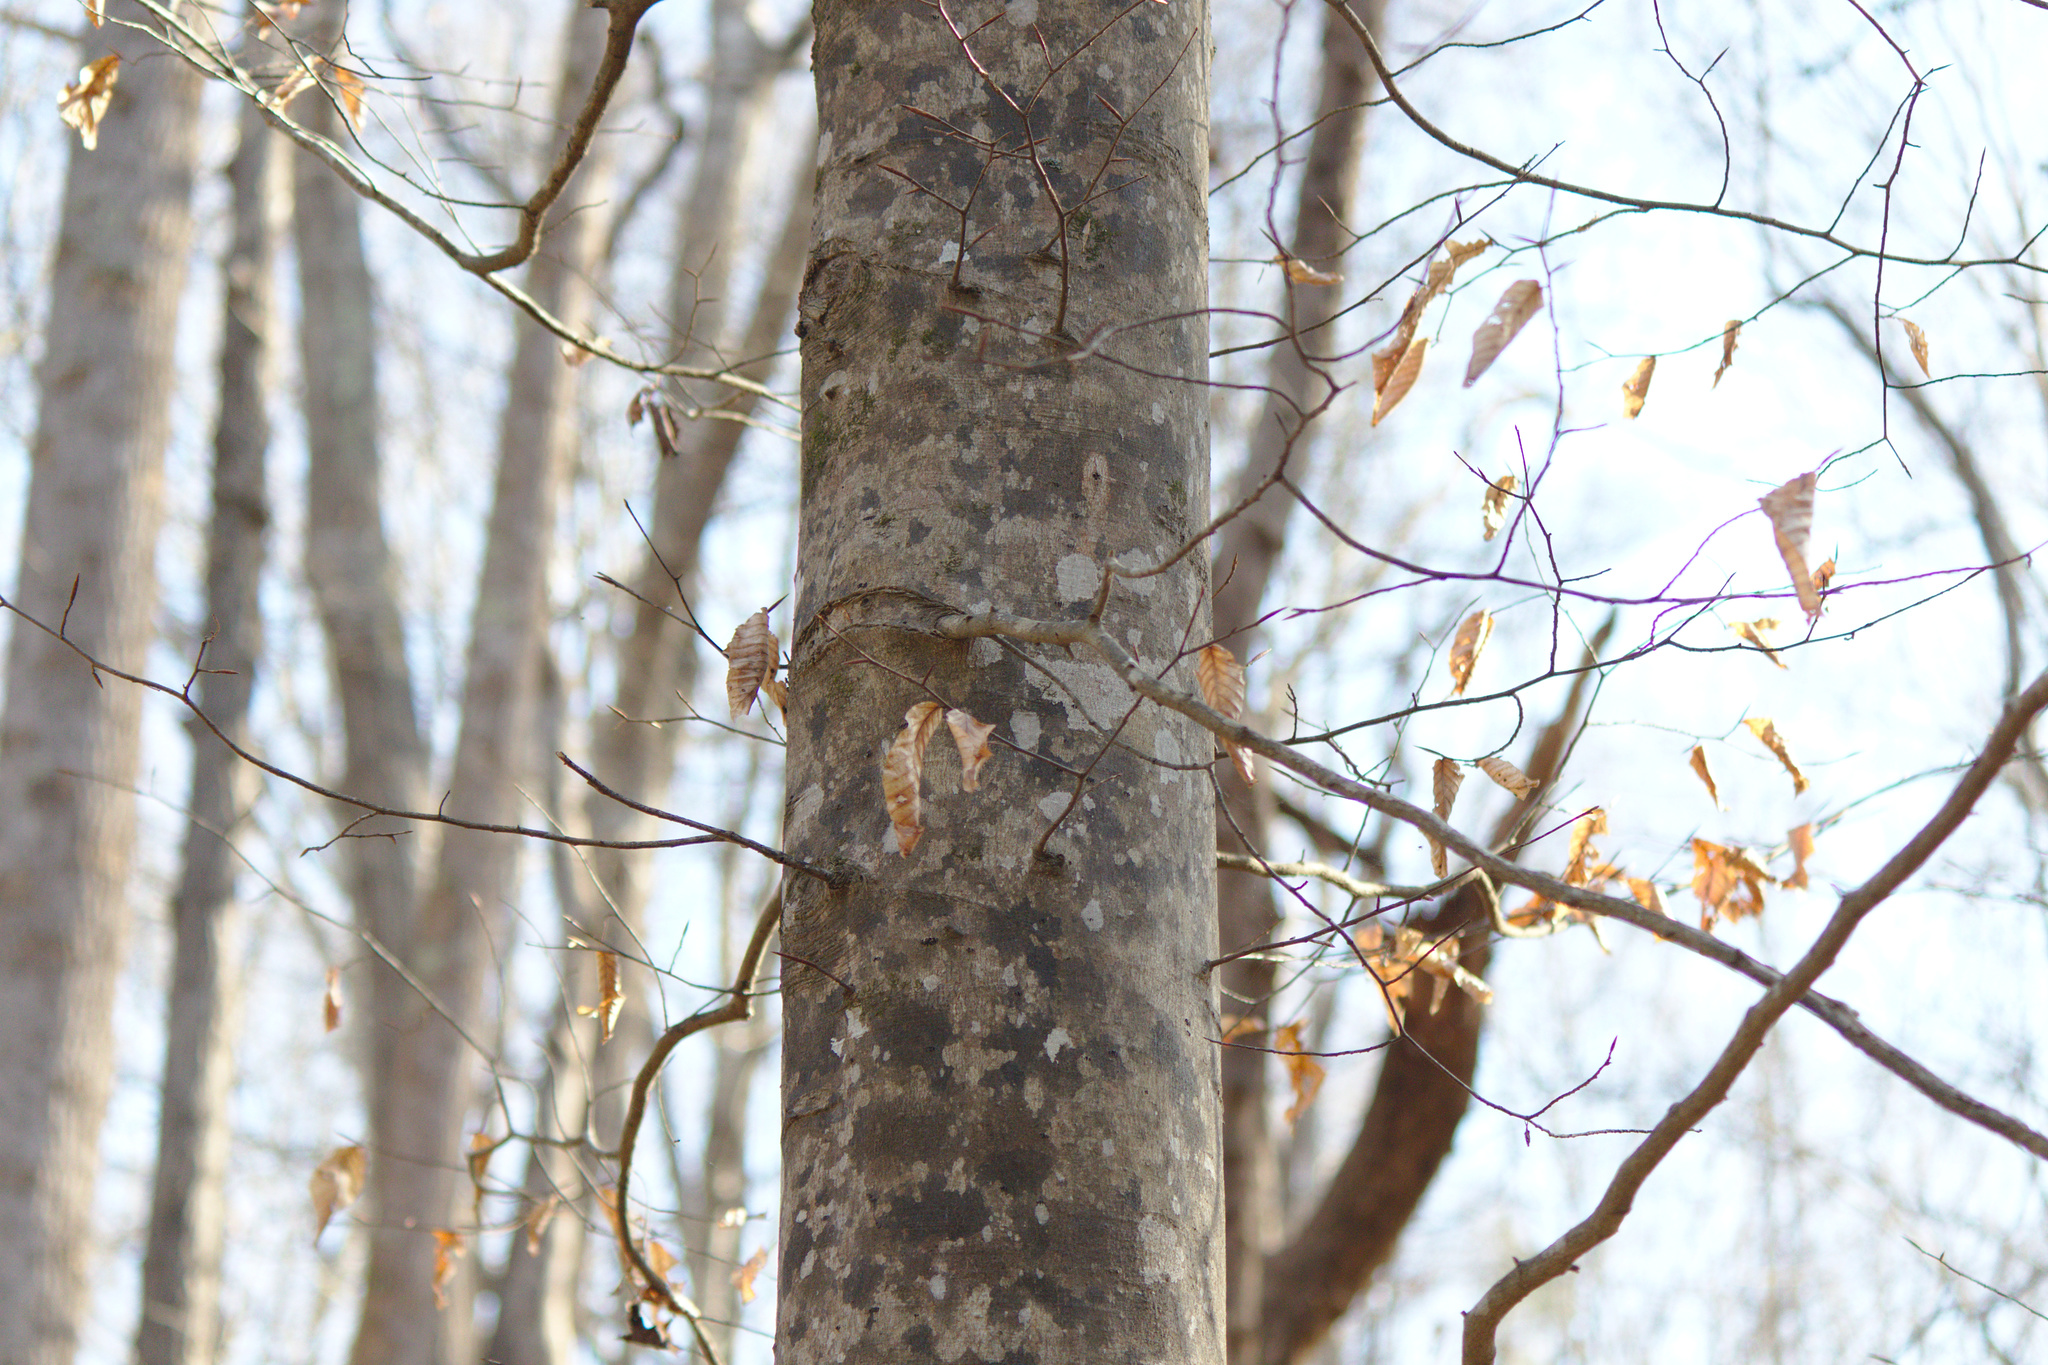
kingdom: Plantae
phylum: Tracheophyta
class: Magnoliopsida
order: Fagales
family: Fagaceae
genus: Fagus
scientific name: Fagus grandifolia
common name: American beech
